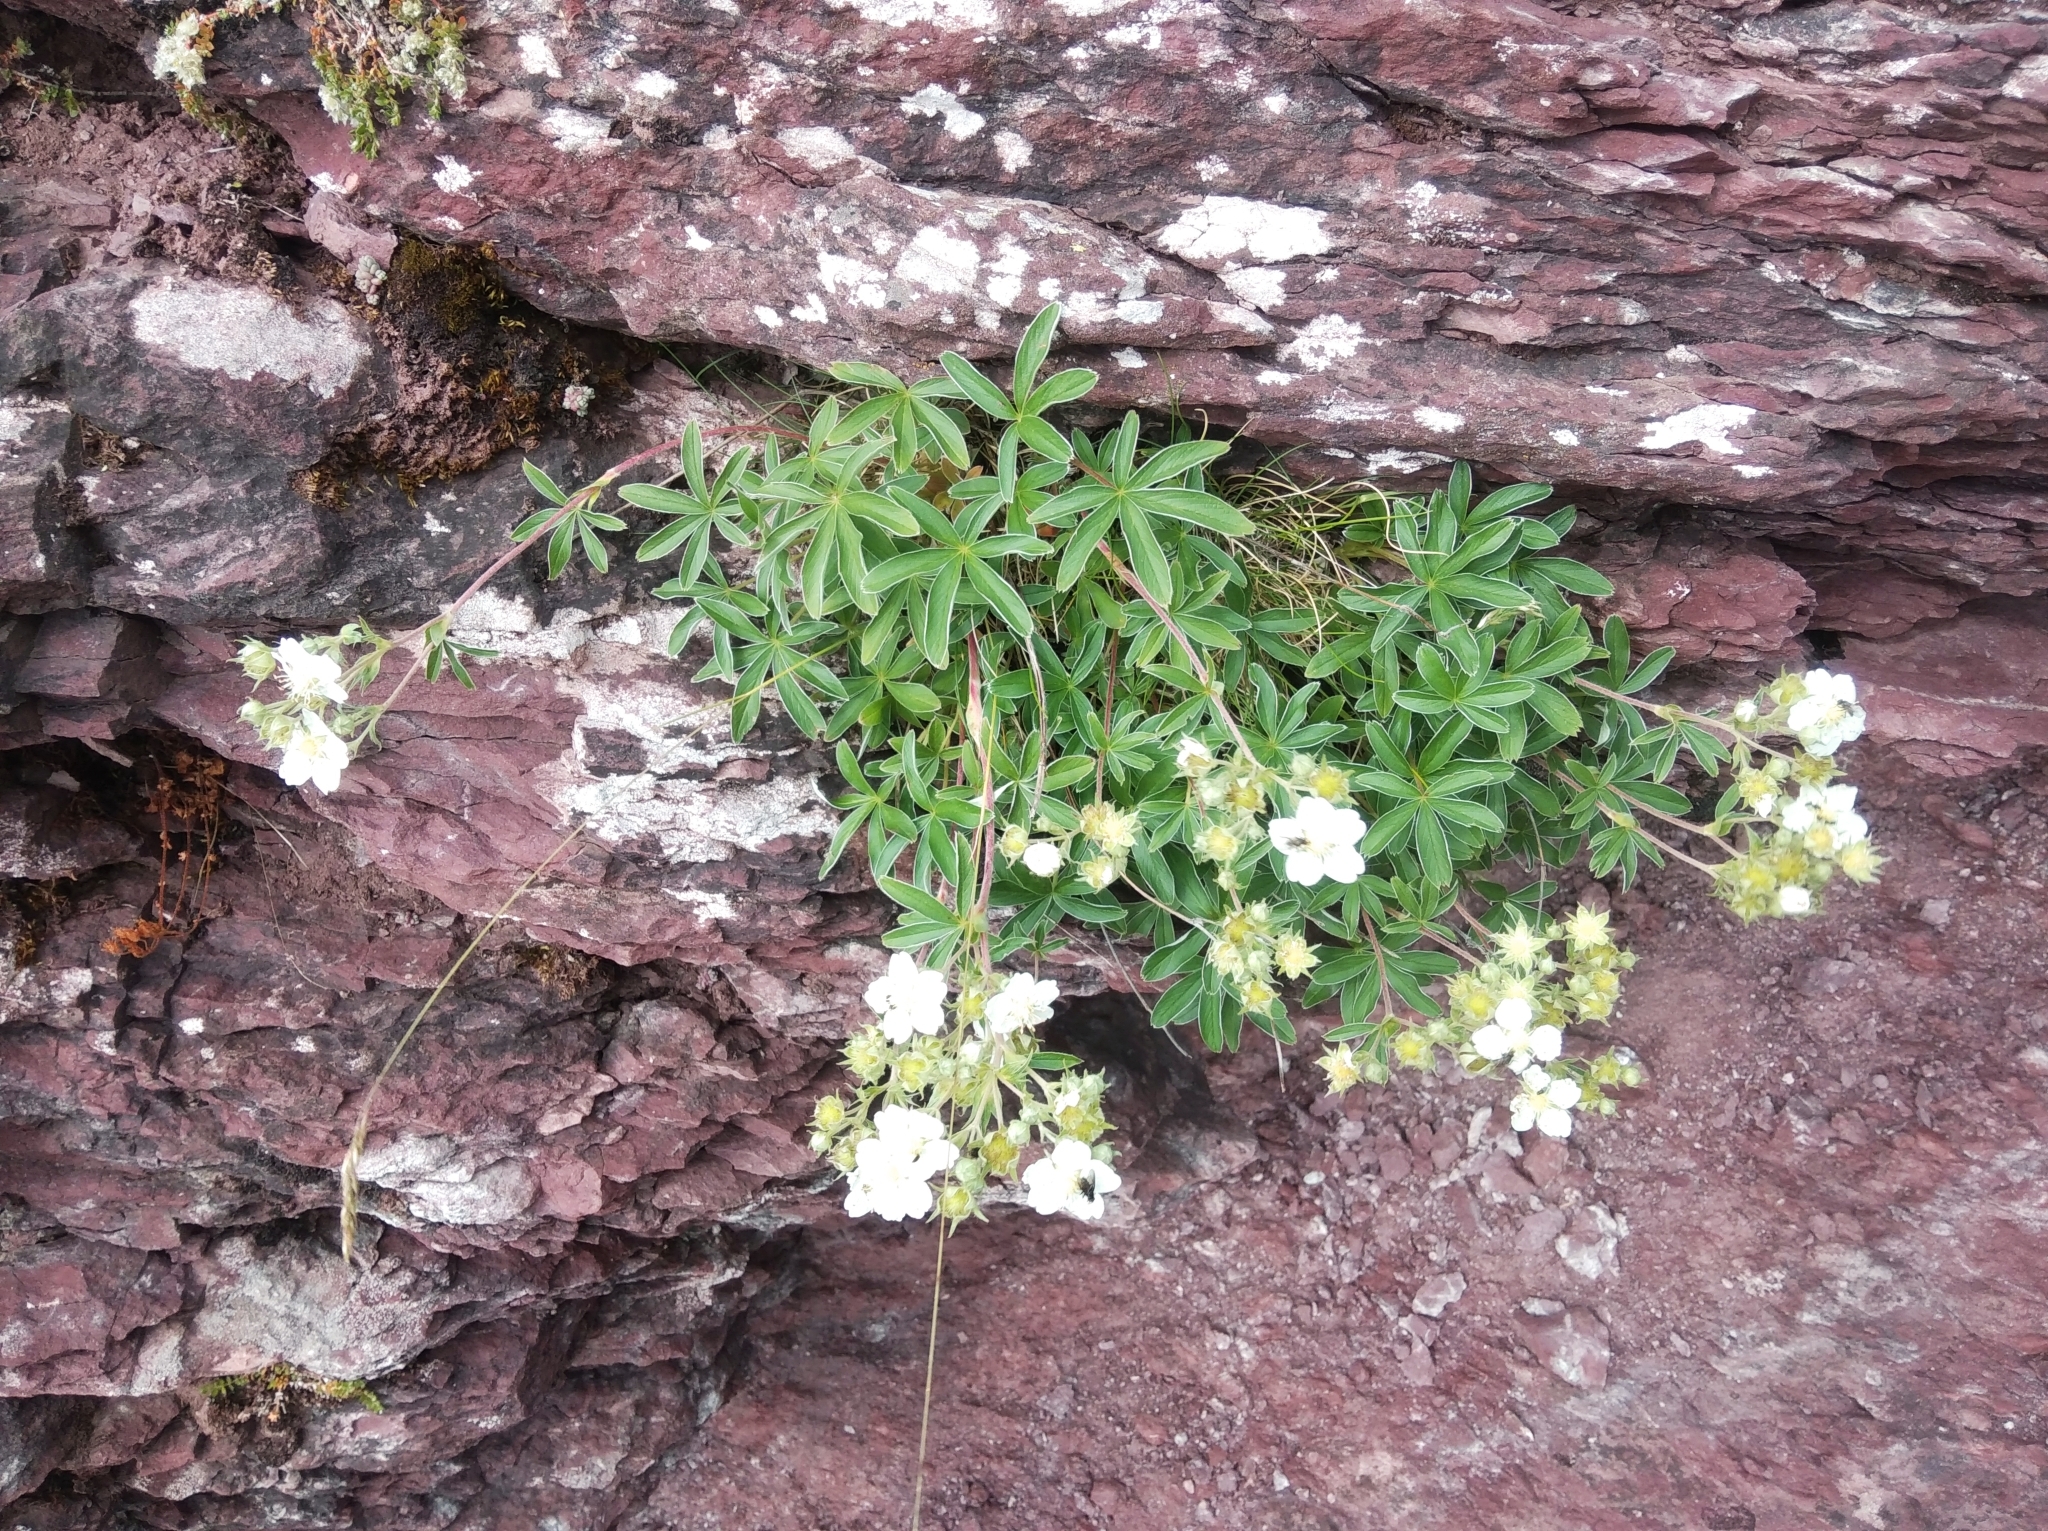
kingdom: Plantae
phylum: Tracheophyta
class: Magnoliopsida
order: Rosales
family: Rosaceae
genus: Potentilla
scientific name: Potentilla alchimilloides
